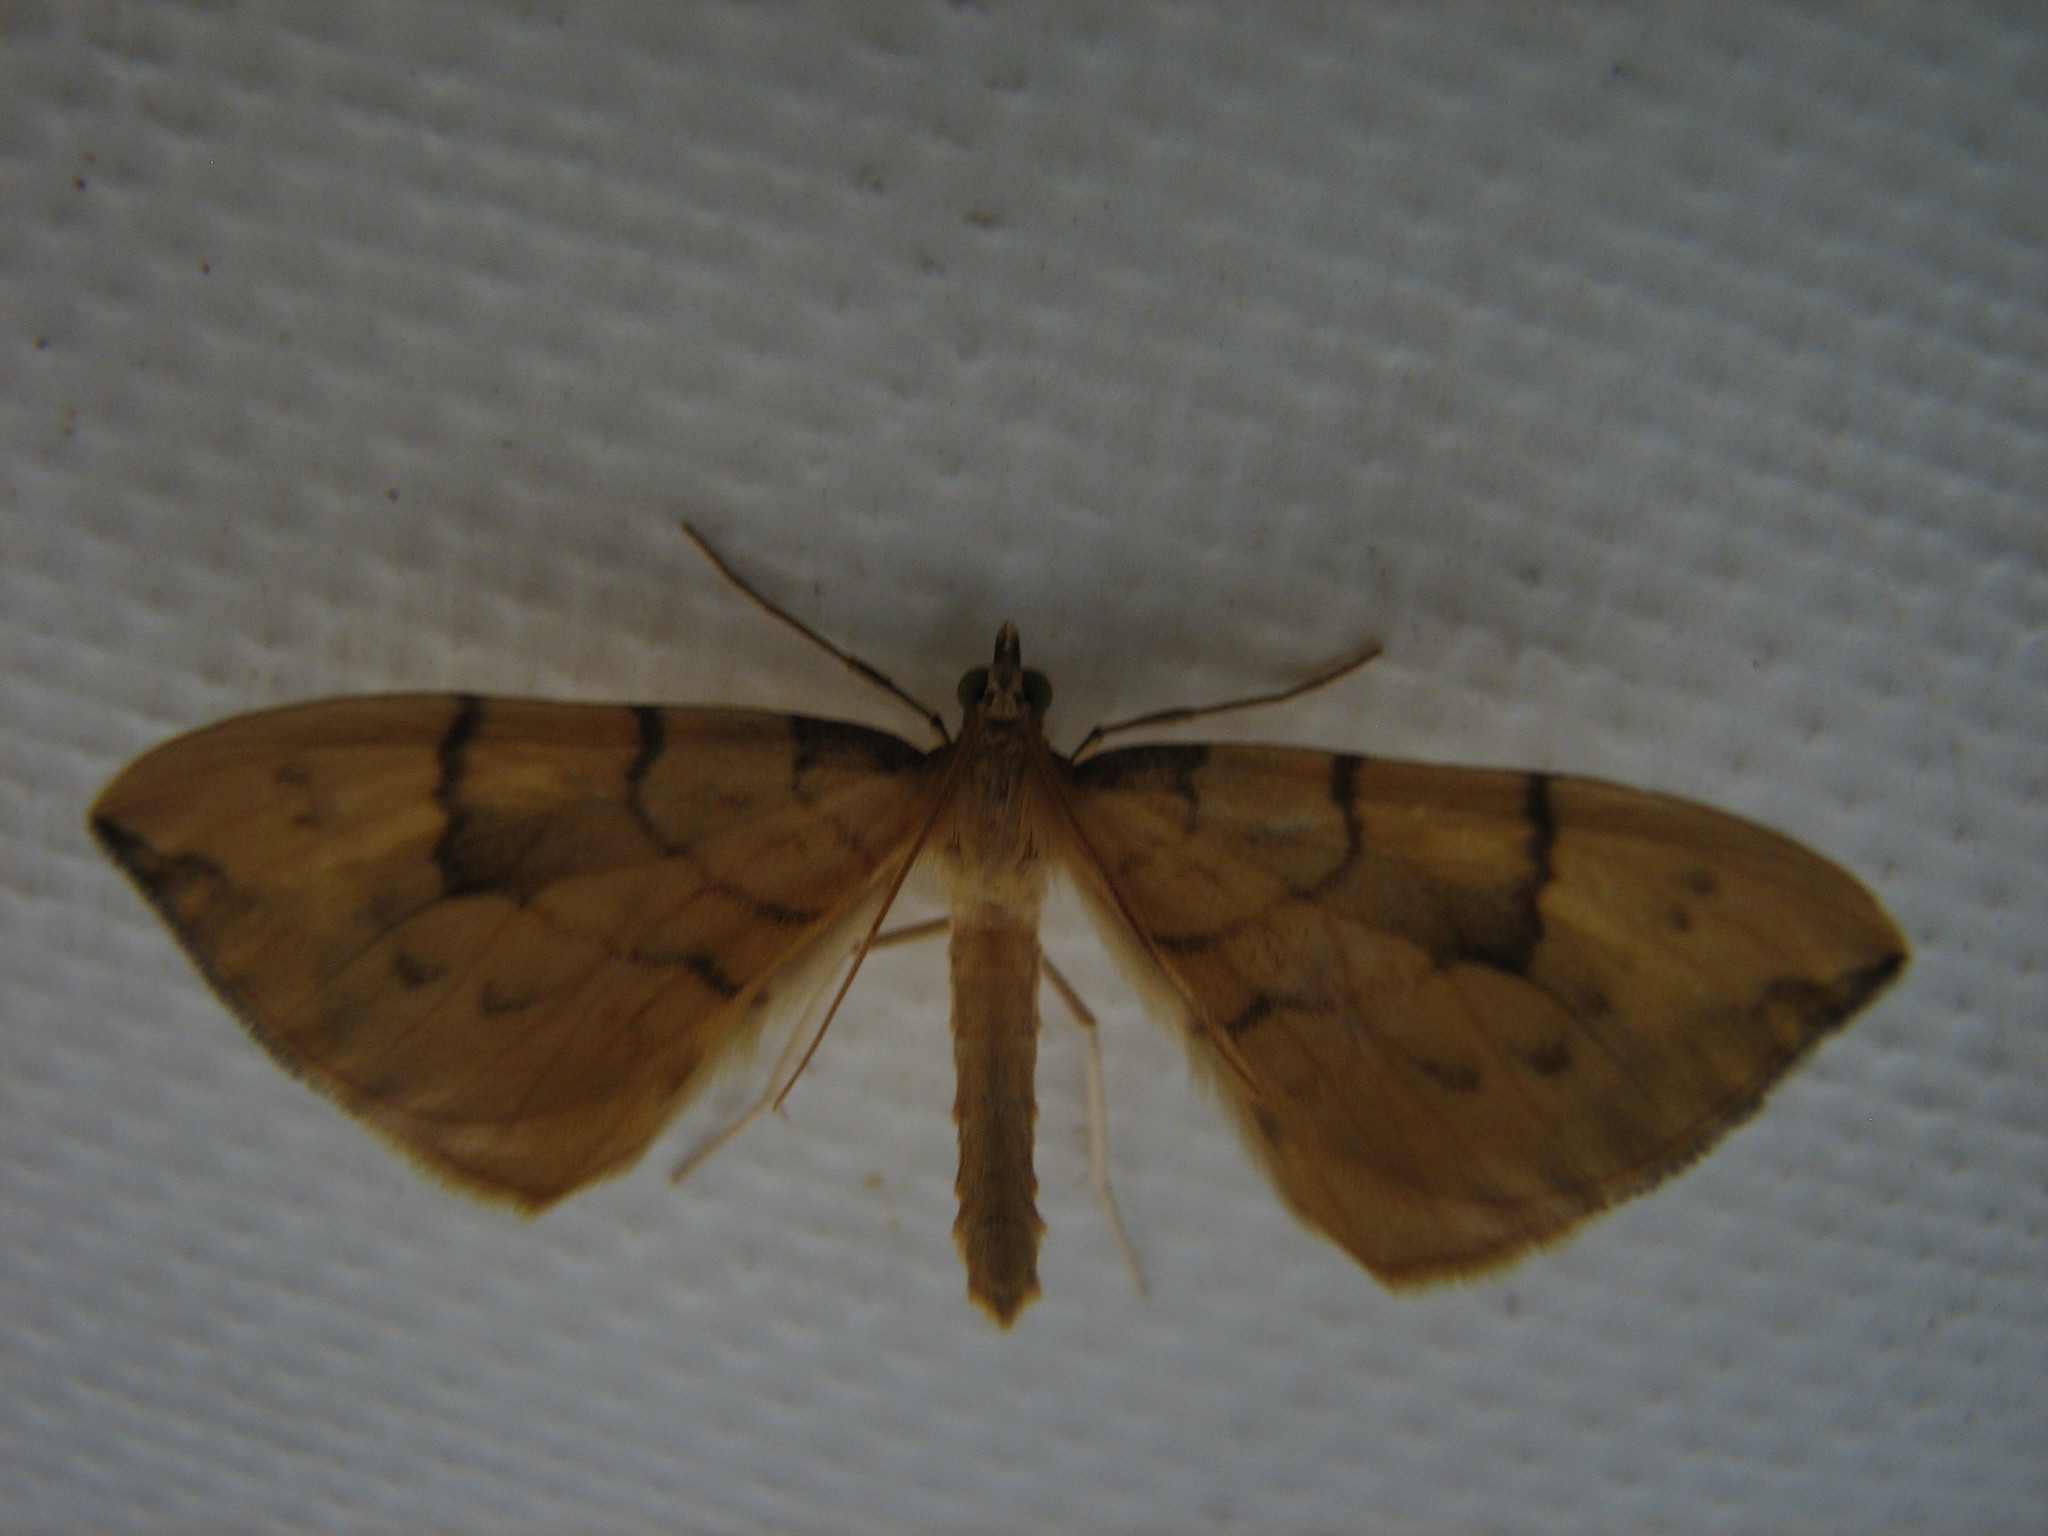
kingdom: Animalia
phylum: Arthropoda
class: Insecta
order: Lepidoptera
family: Geometridae
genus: Eulithis
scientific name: Eulithis pyraliata
